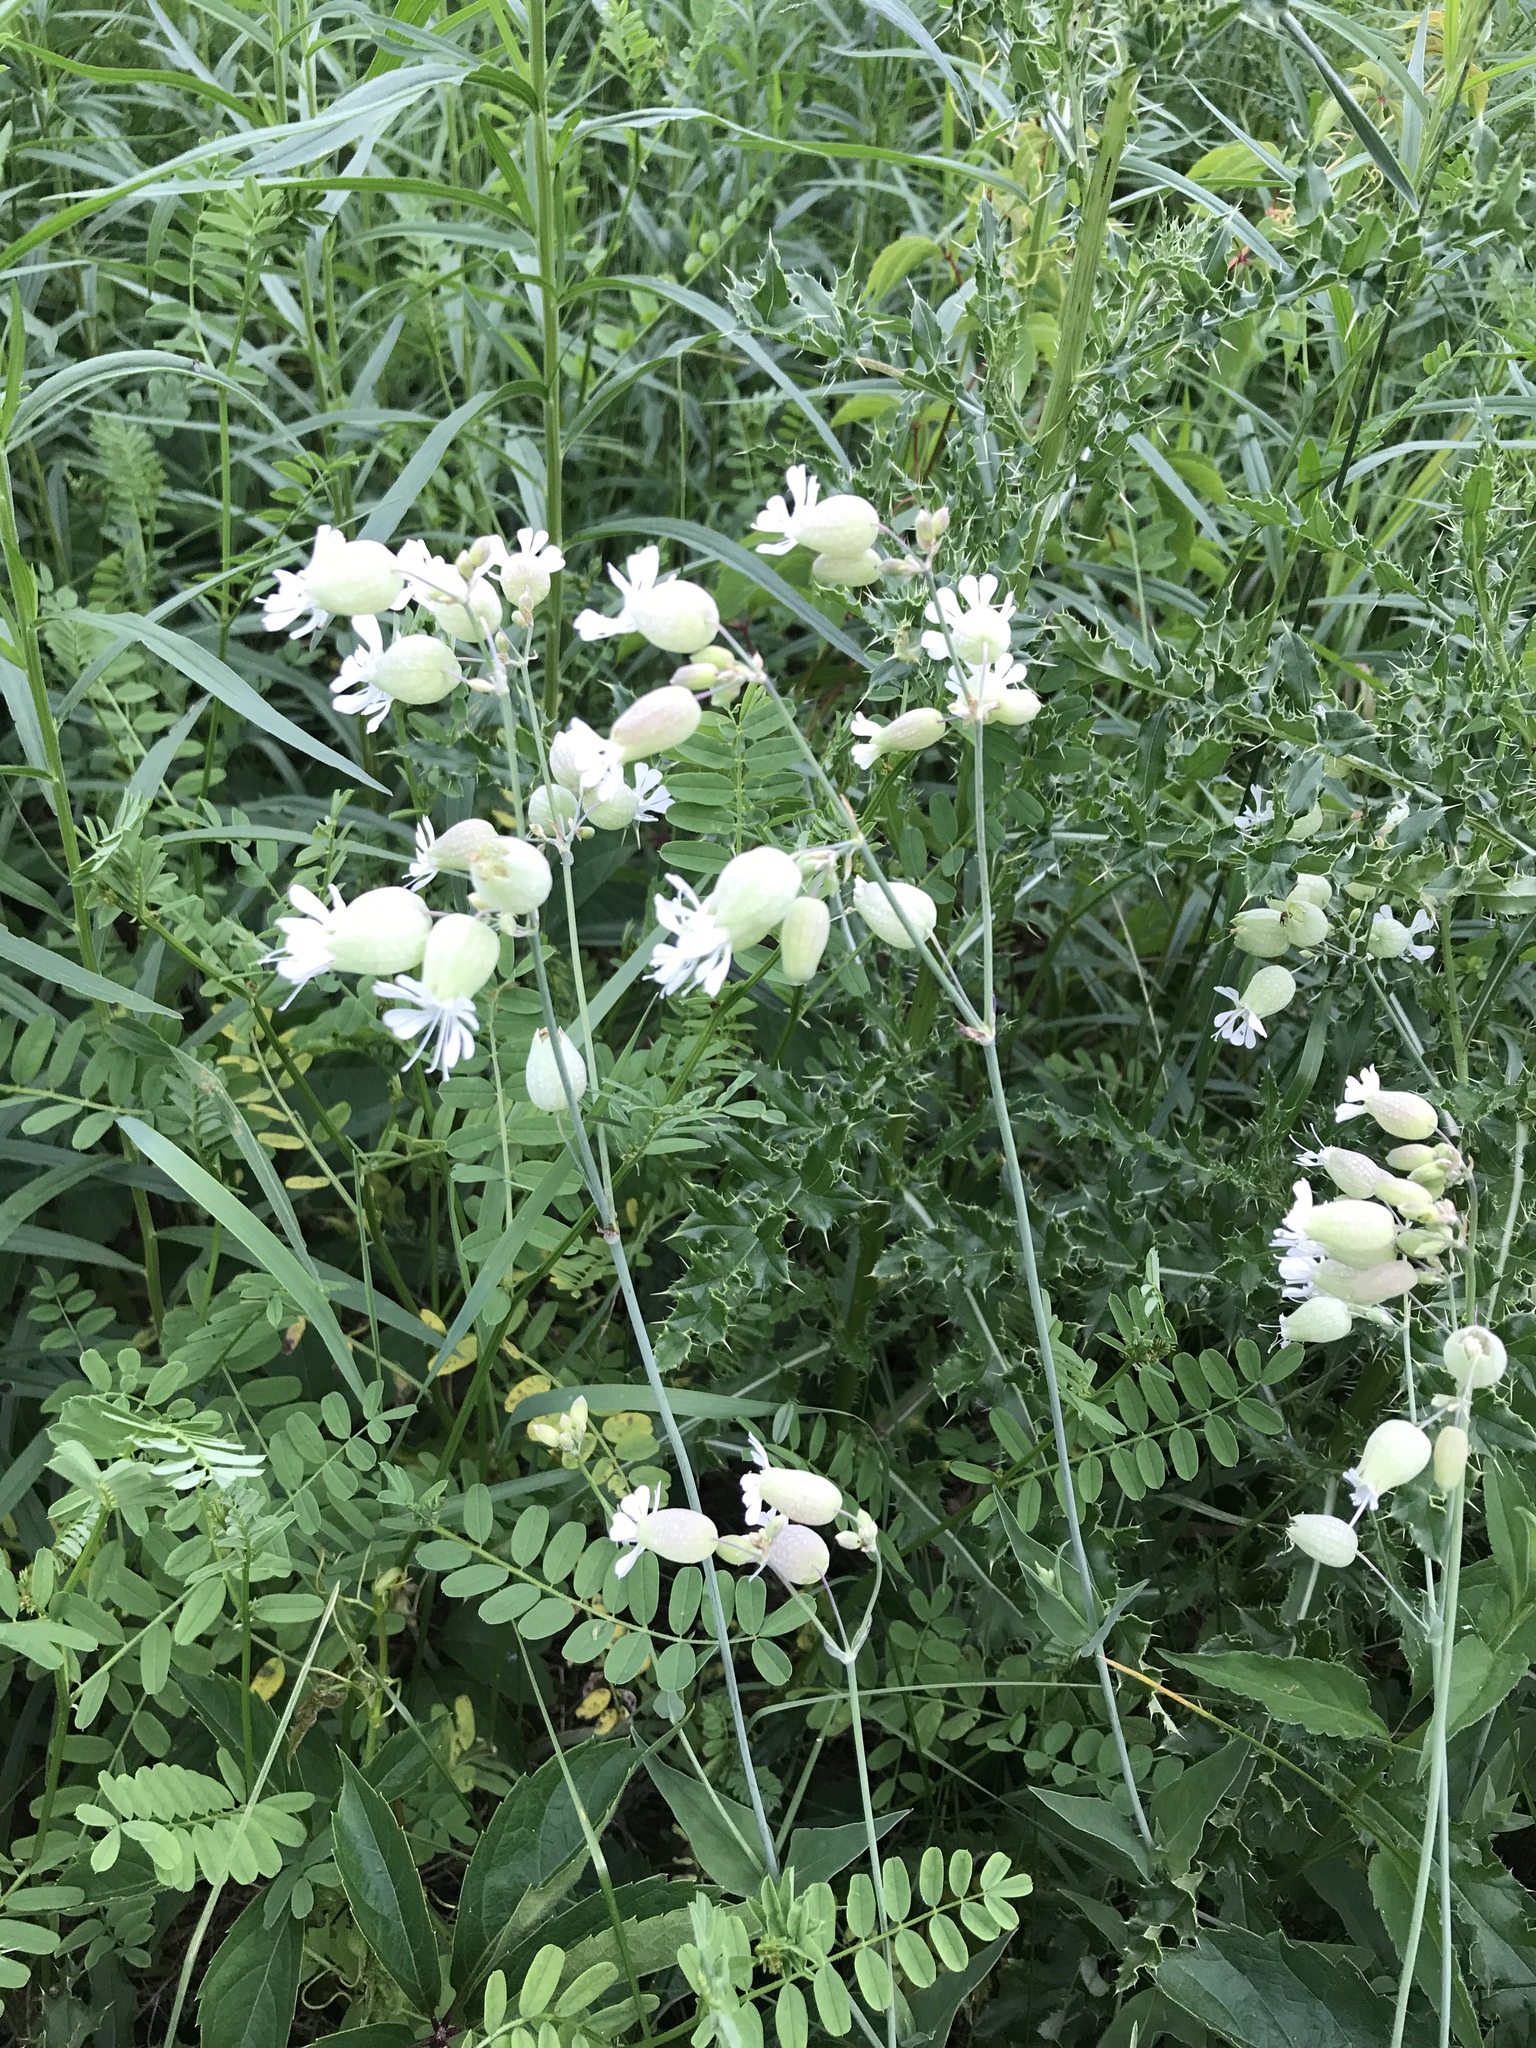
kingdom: Plantae
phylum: Tracheophyta
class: Magnoliopsida
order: Caryophyllales
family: Caryophyllaceae
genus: Silene
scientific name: Silene vulgaris
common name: Bladder campion
